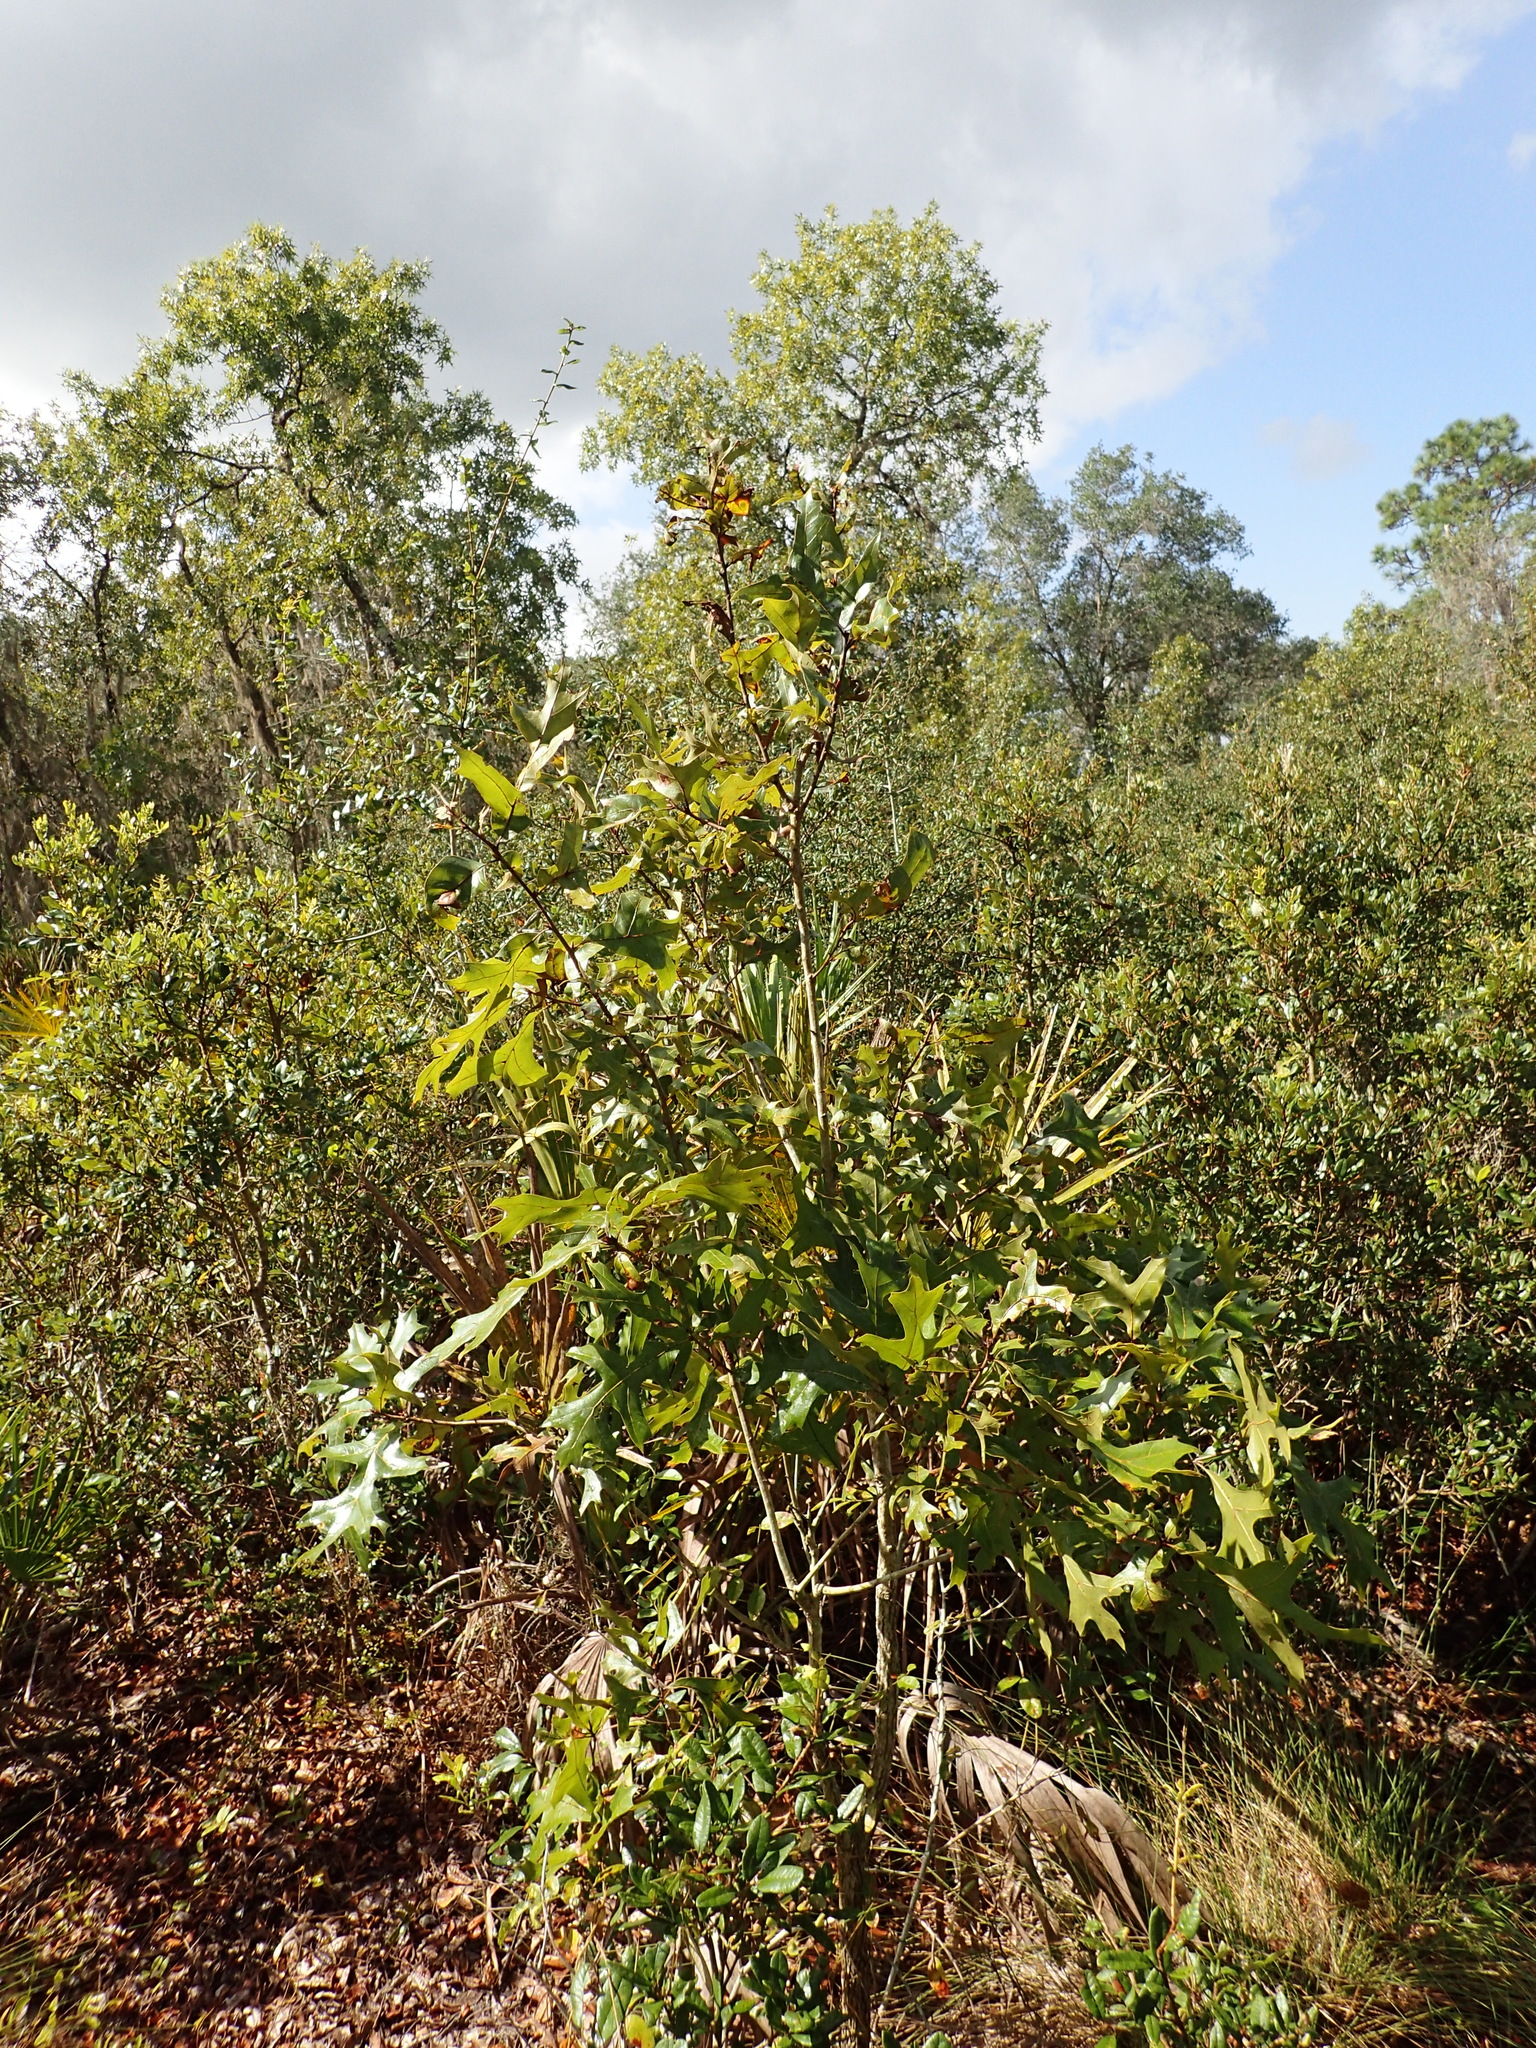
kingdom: Plantae
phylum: Tracheophyta
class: Magnoliopsida
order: Fagales
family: Fagaceae
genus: Quercus
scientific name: Quercus laevis
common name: Turkey oak
